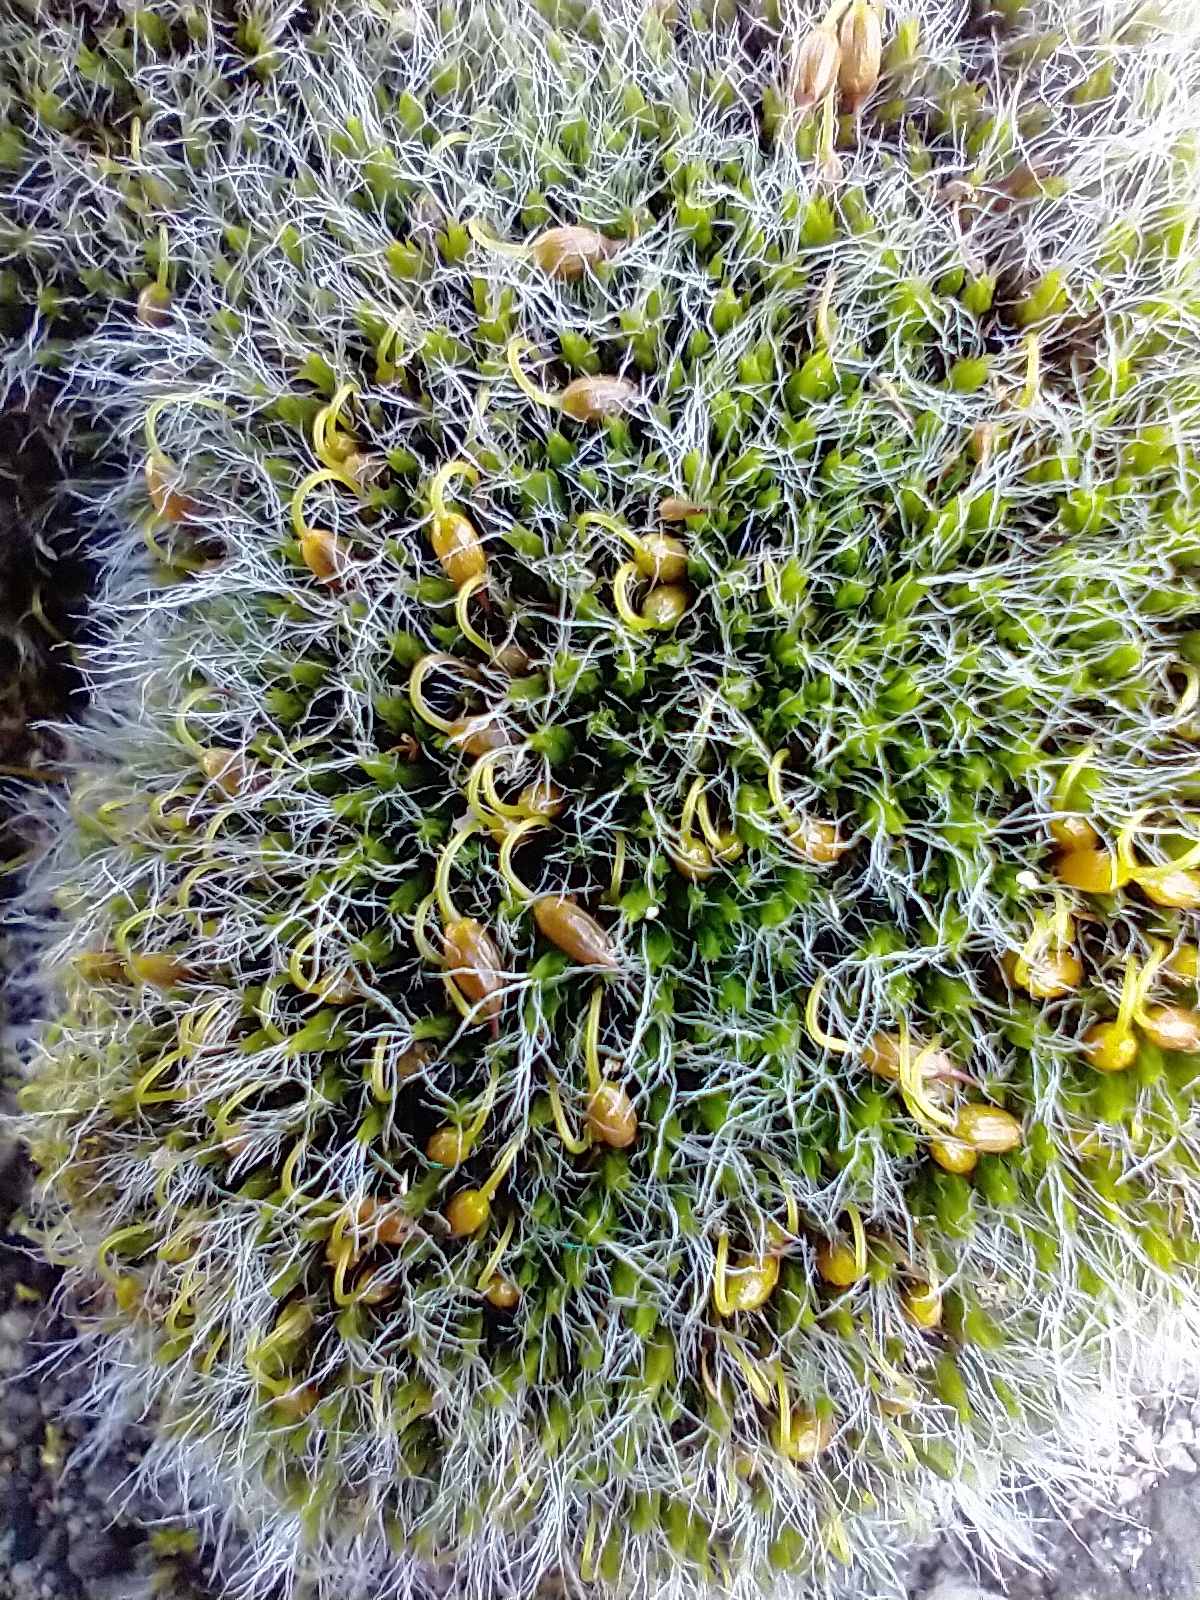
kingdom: Plantae
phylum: Bryophyta
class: Bryopsida
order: Grimmiales
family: Grimmiaceae
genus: Grimmia
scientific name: Grimmia pulvinata
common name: Grey-cushioned grimmia
